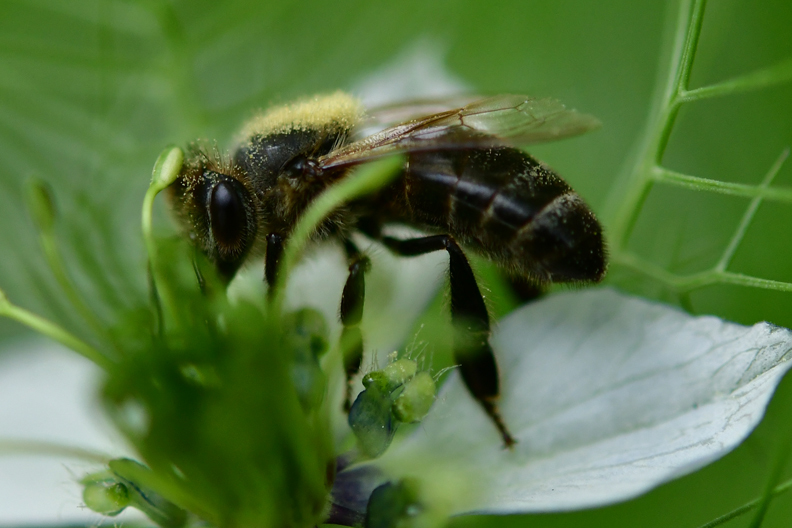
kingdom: Animalia
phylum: Arthropoda
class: Insecta
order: Hymenoptera
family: Apidae
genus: Apis
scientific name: Apis mellifera
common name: Honey bee
